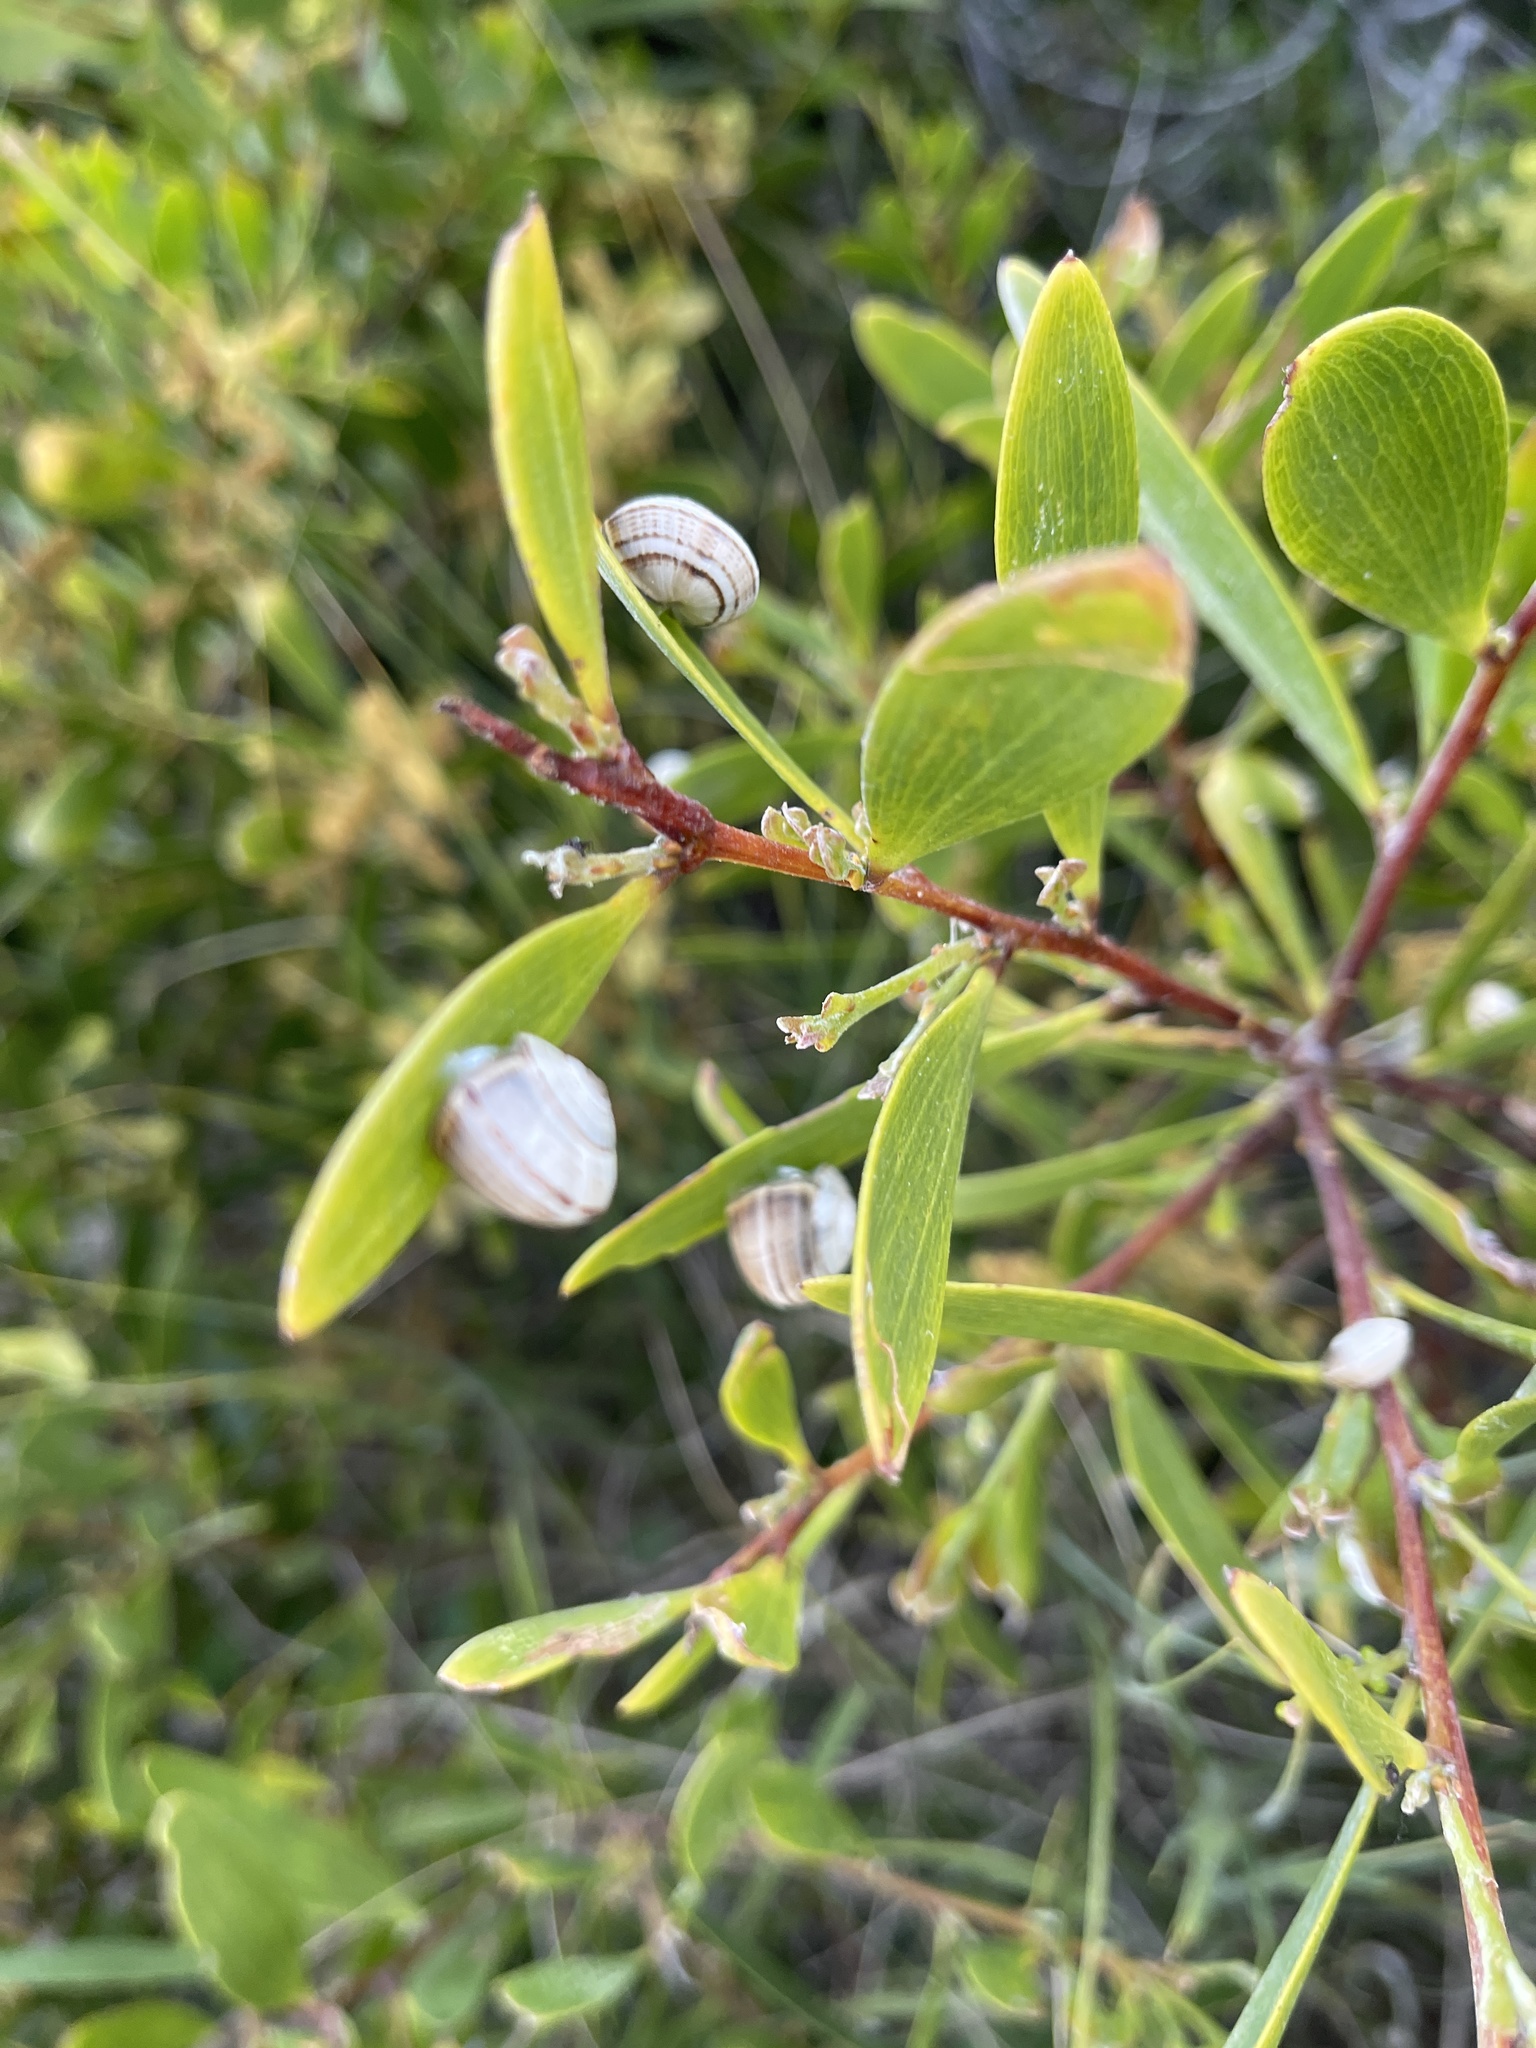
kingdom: Animalia
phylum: Mollusca
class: Gastropoda
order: Stylommatophora
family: Helicidae
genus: Theba
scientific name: Theba pisana
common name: White snail
